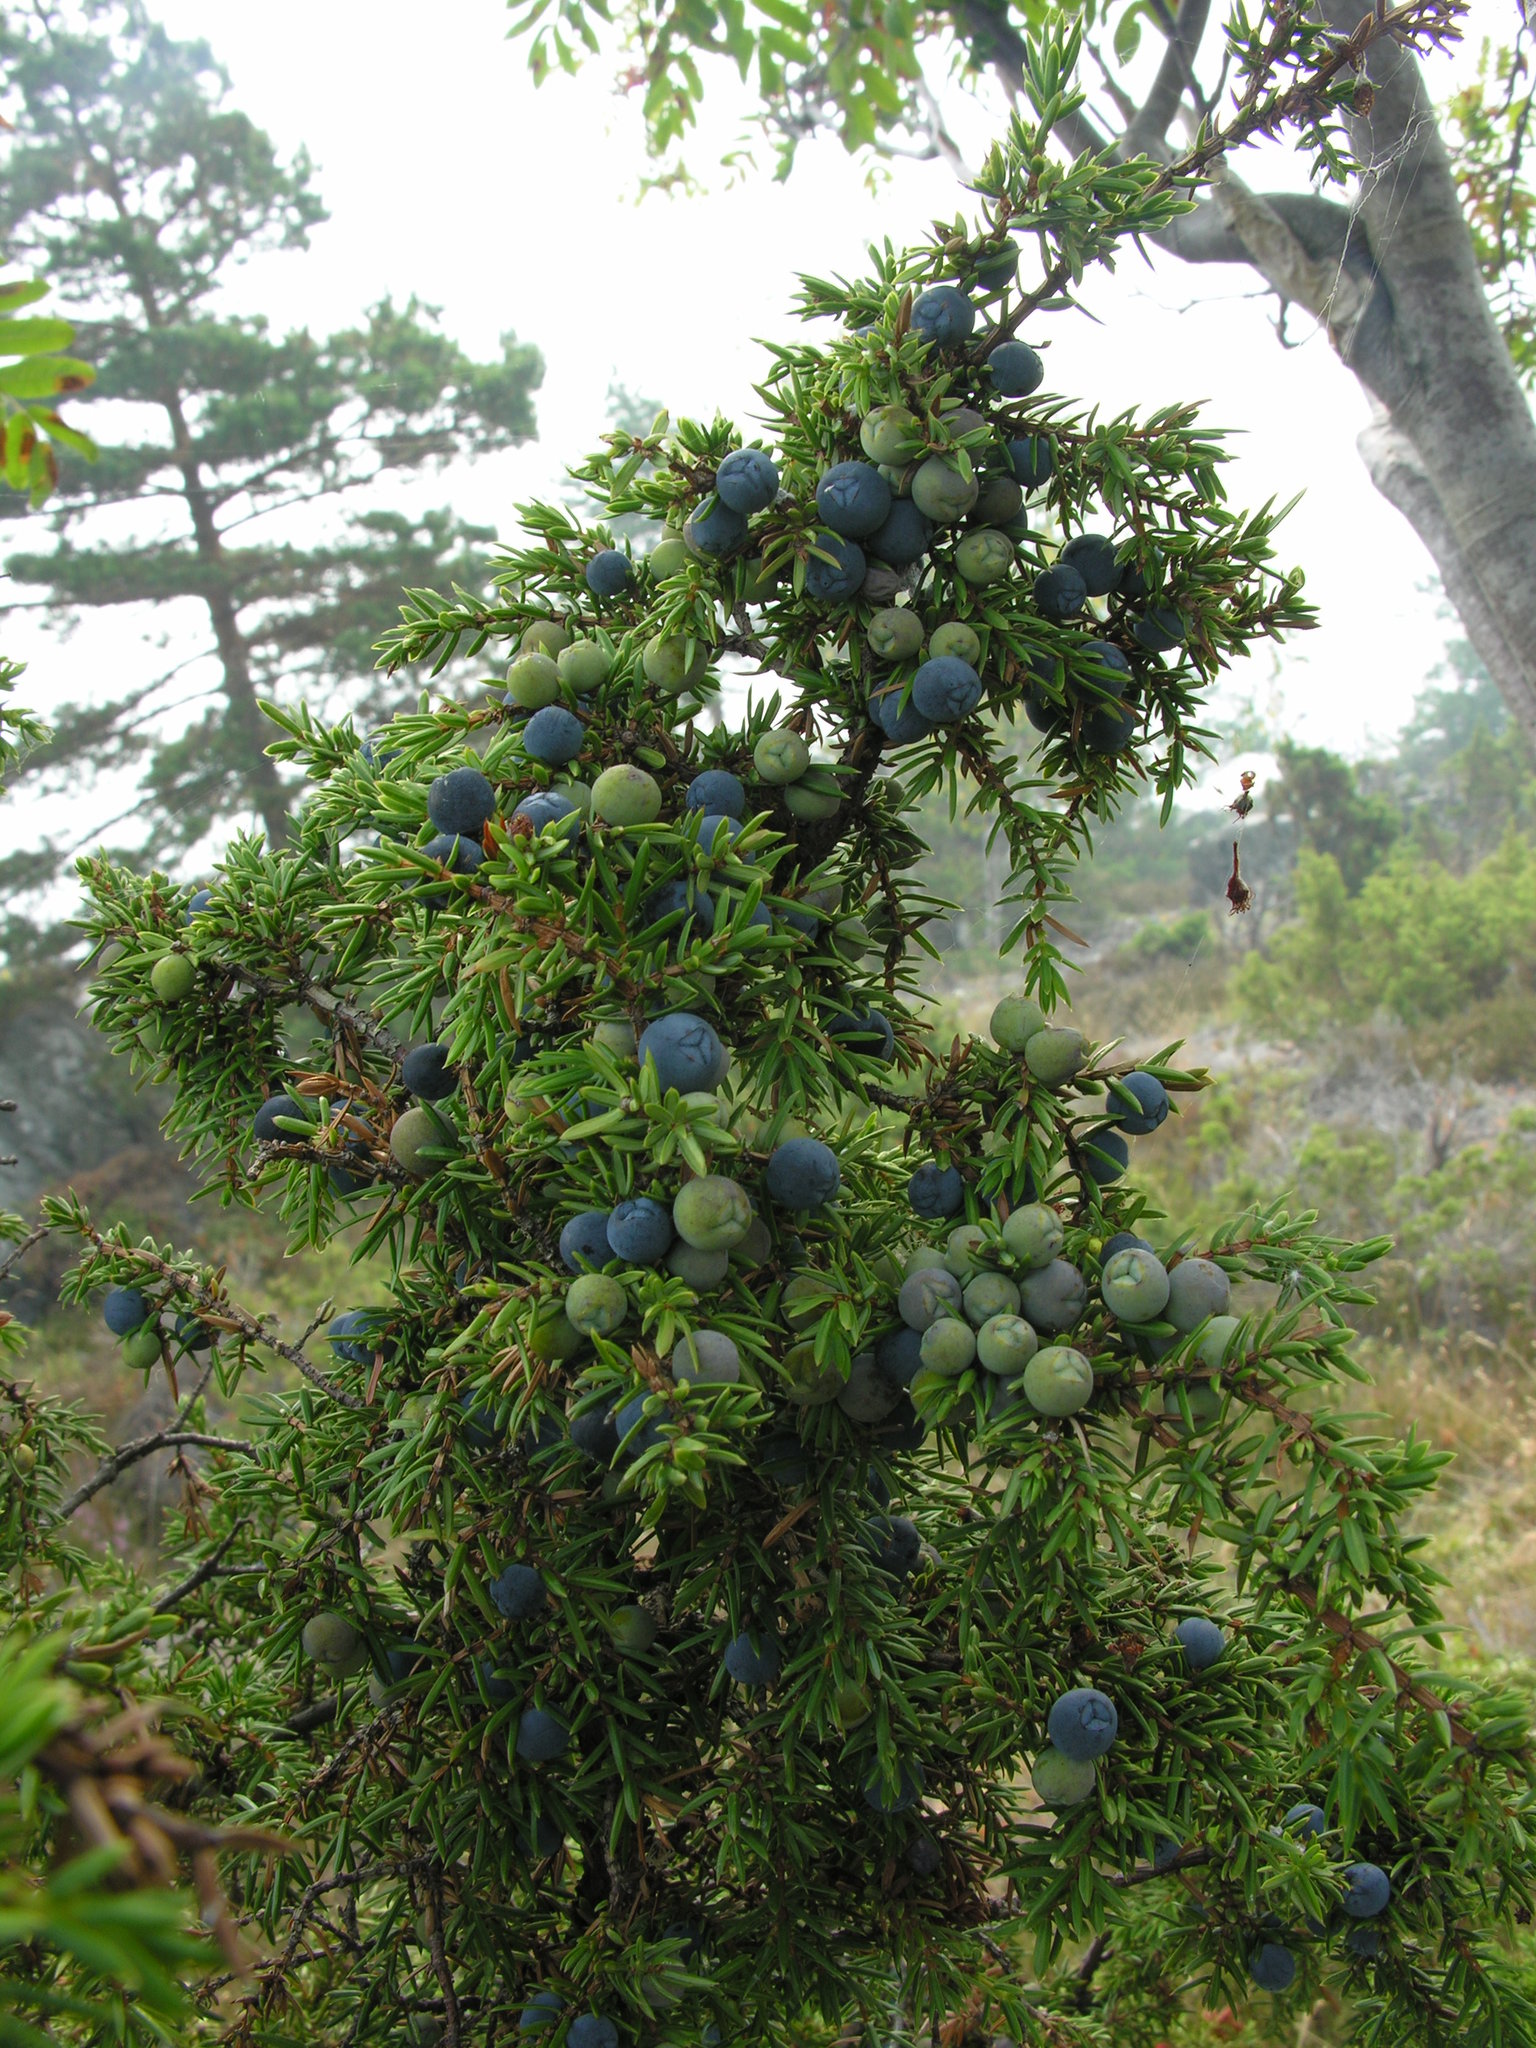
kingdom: Plantae
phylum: Tracheophyta
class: Pinopsida
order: Pinales
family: Cupressaceae
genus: Juniperus
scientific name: Juniperus communis
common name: Common juniper
